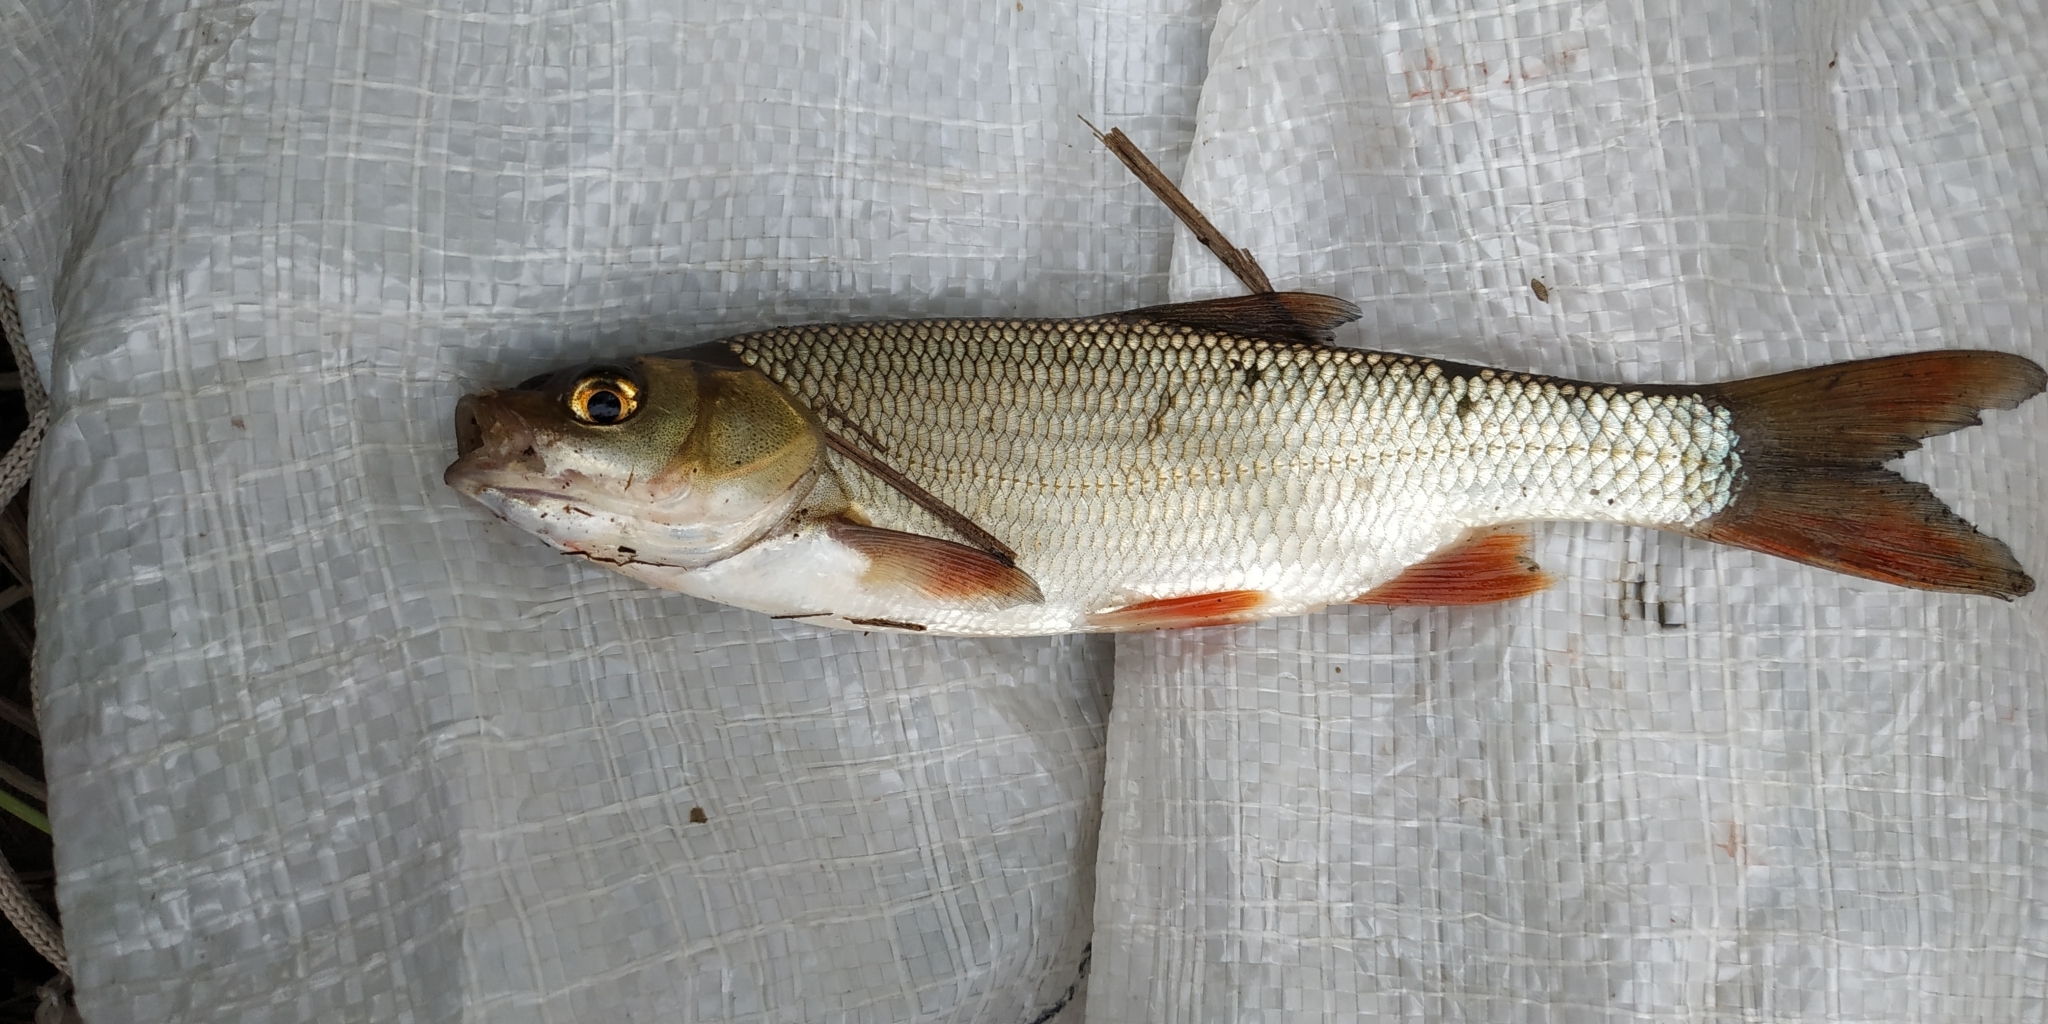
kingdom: Animalia
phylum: Chordata
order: Cypriniformes
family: Cyprinidae
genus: Leuciscus
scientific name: Leuciscus idus
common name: Ide
